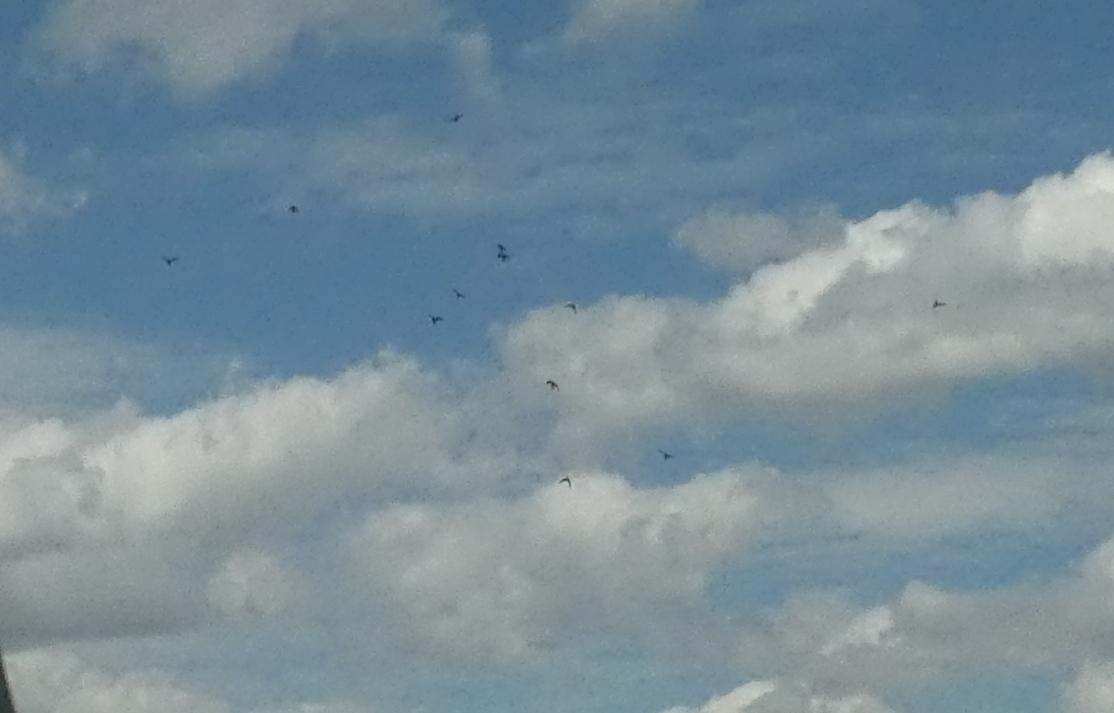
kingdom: Animalia
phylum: Chordata
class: Aves
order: Columbiformes
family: Columbidae
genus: Columba
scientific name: Columba livia
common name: Rock pigeon
